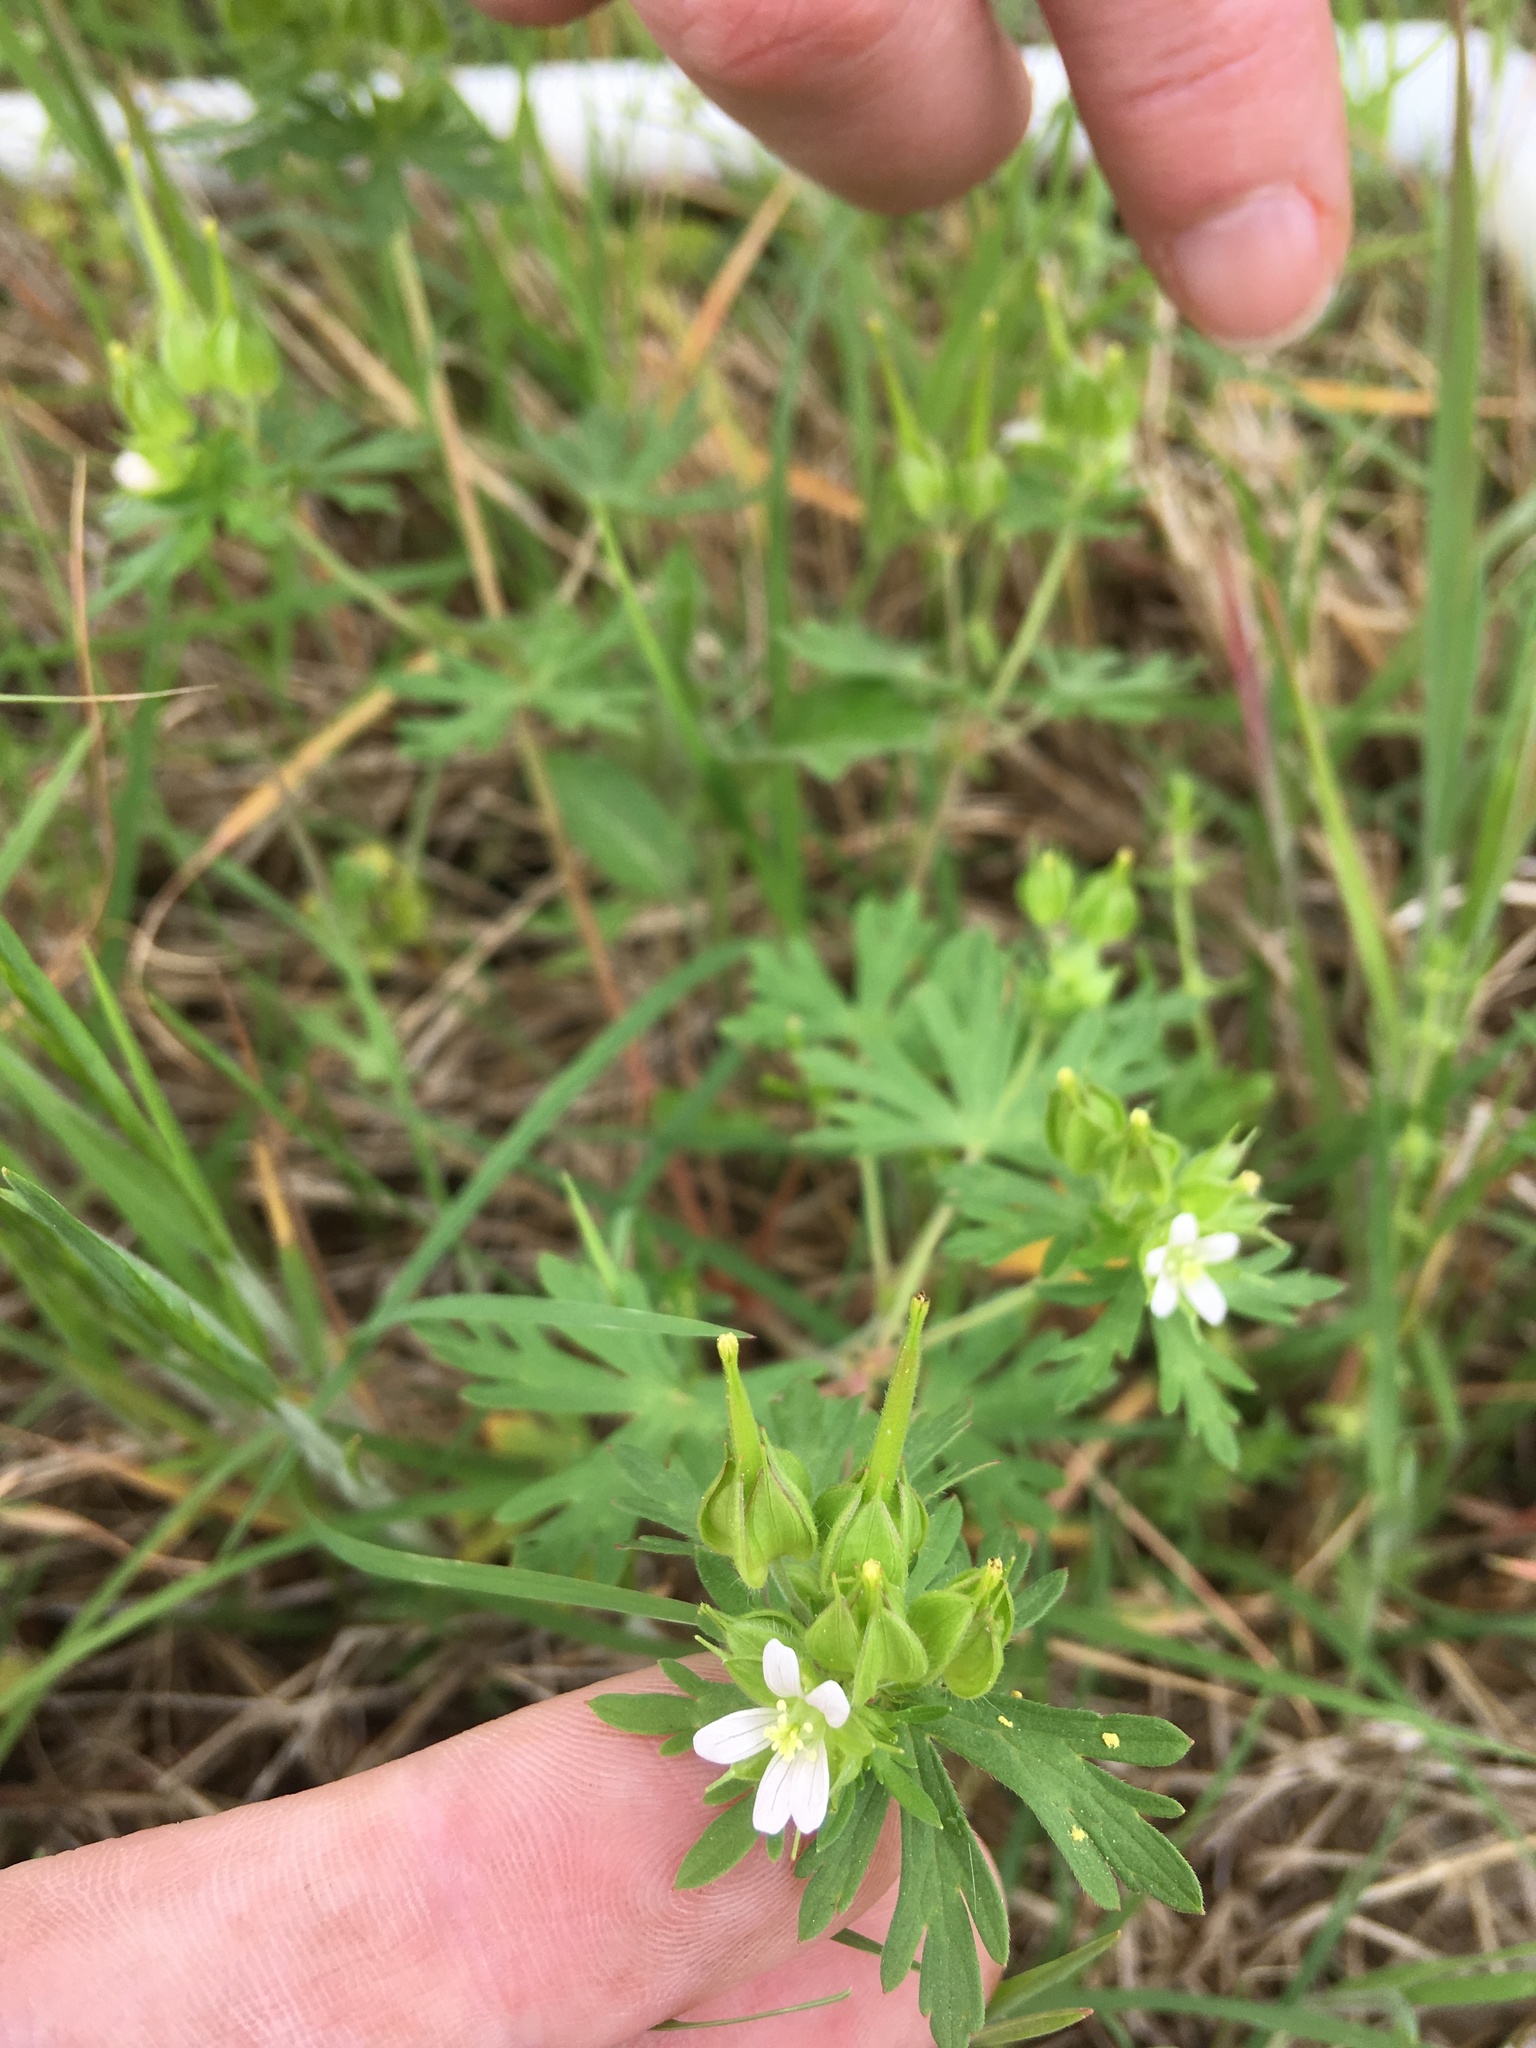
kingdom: Plantae
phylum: Tracheophyta
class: Magnoliopsida
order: Geraniales
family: Geraniaceae
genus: Geranium
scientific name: Geranium carolinianum
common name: Carolina crane's-bill
